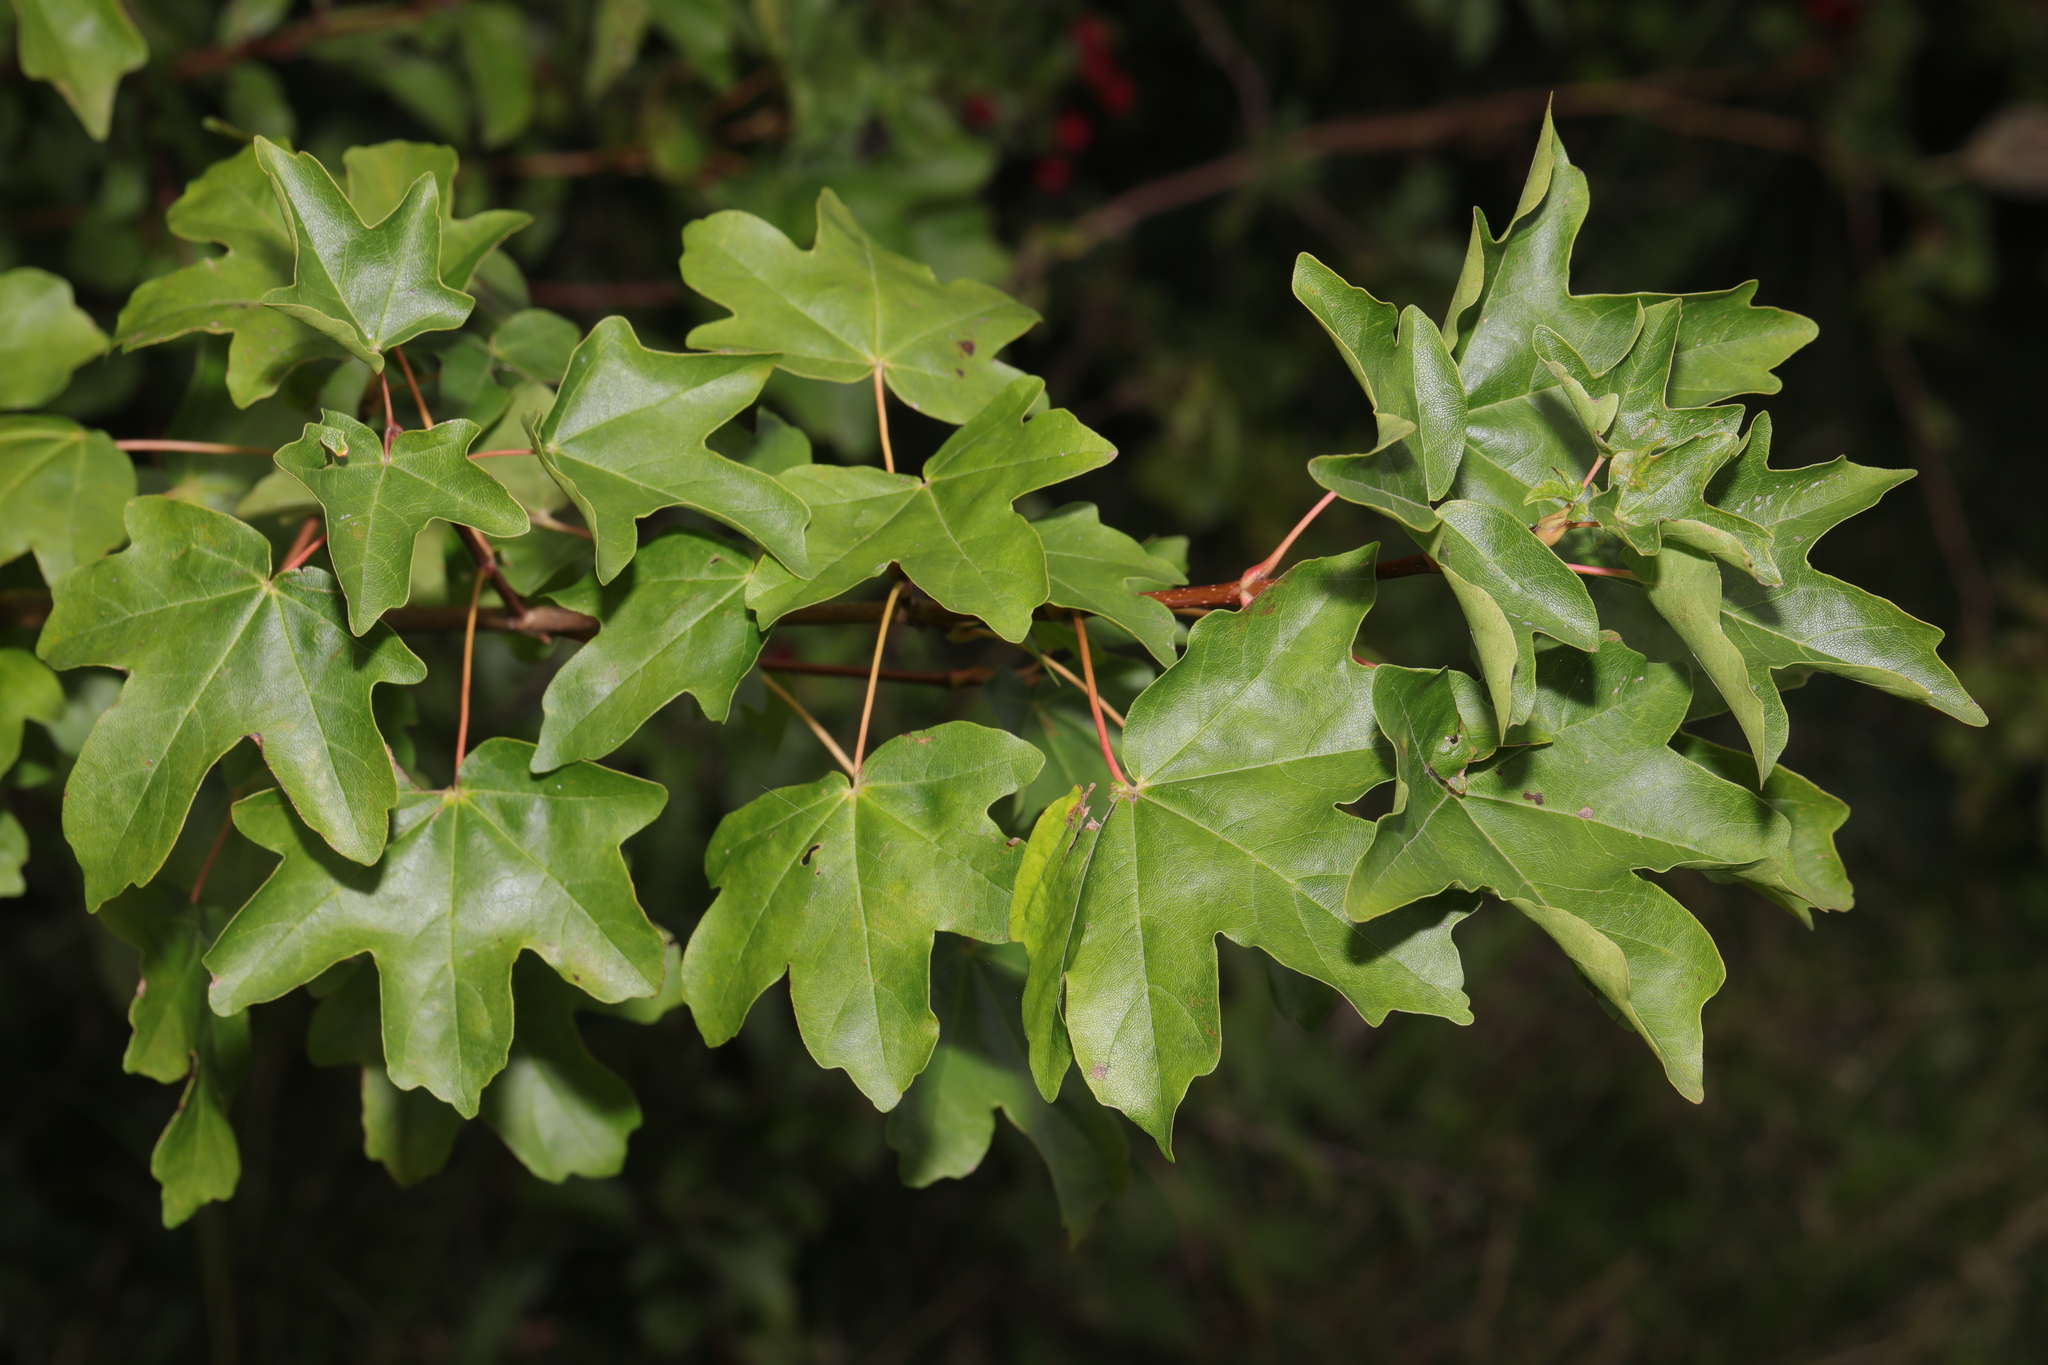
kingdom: Plantae
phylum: Tracheophyta
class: Magnoliopsida
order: Sapindales
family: Sapindaceae
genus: Acer
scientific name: Acer campestre
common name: Field maple
